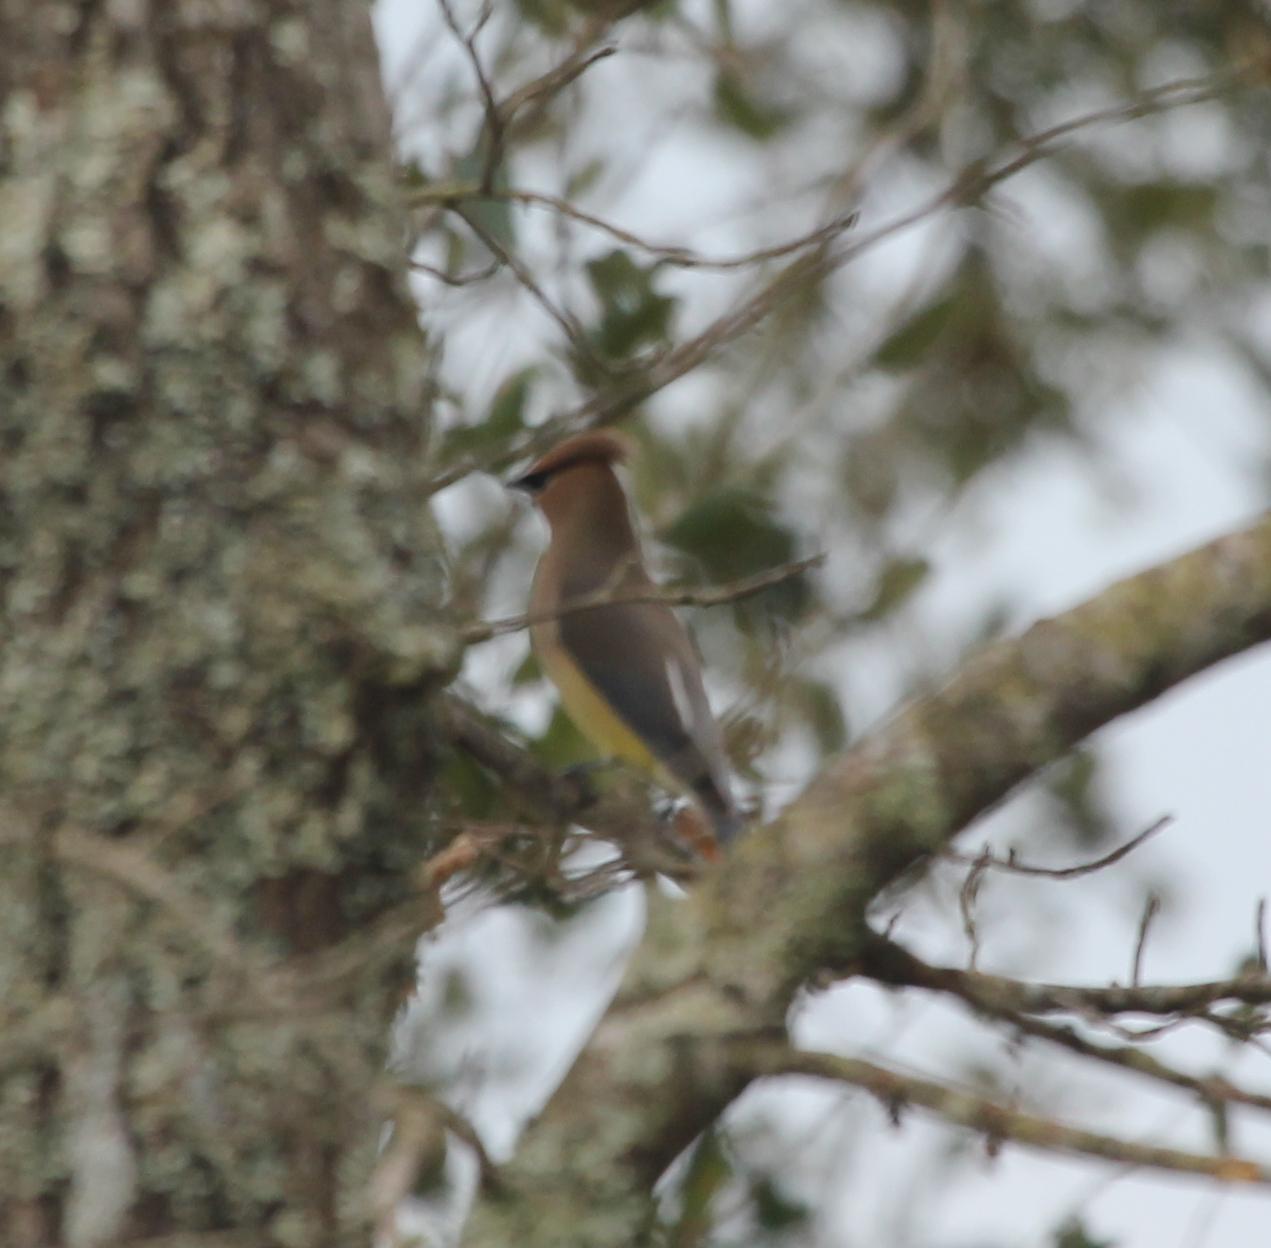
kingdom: Animalia
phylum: Chordata
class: Aves
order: Passeriformes
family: Bombycillidae
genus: Bombycilla
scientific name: Bombycilla cedrorum
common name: Cedar waxwing
